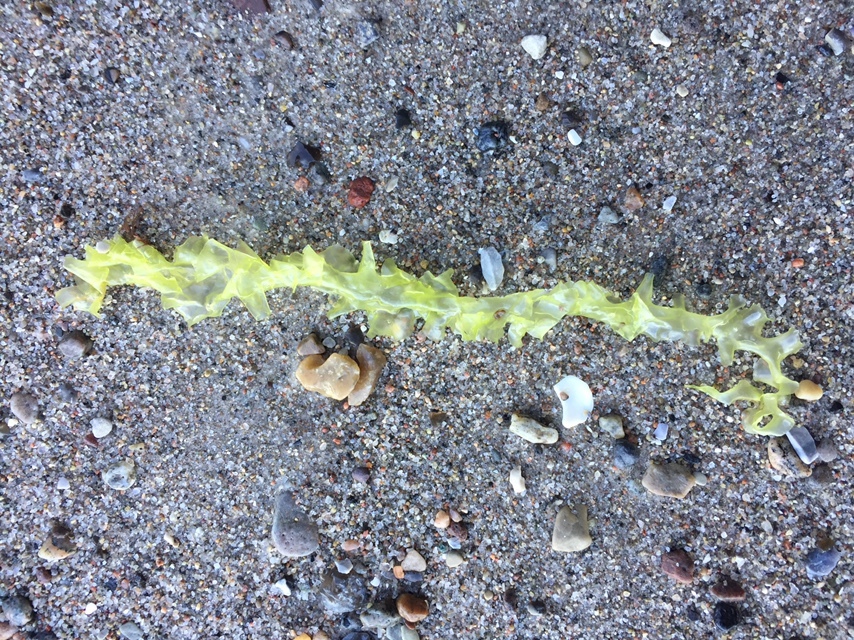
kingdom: Plantae
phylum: Chlorophyta
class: Ulvophyceae
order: Ulvales
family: Ulvaceae
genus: Ulva
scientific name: Ulva lactuca
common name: Sea lettuce
